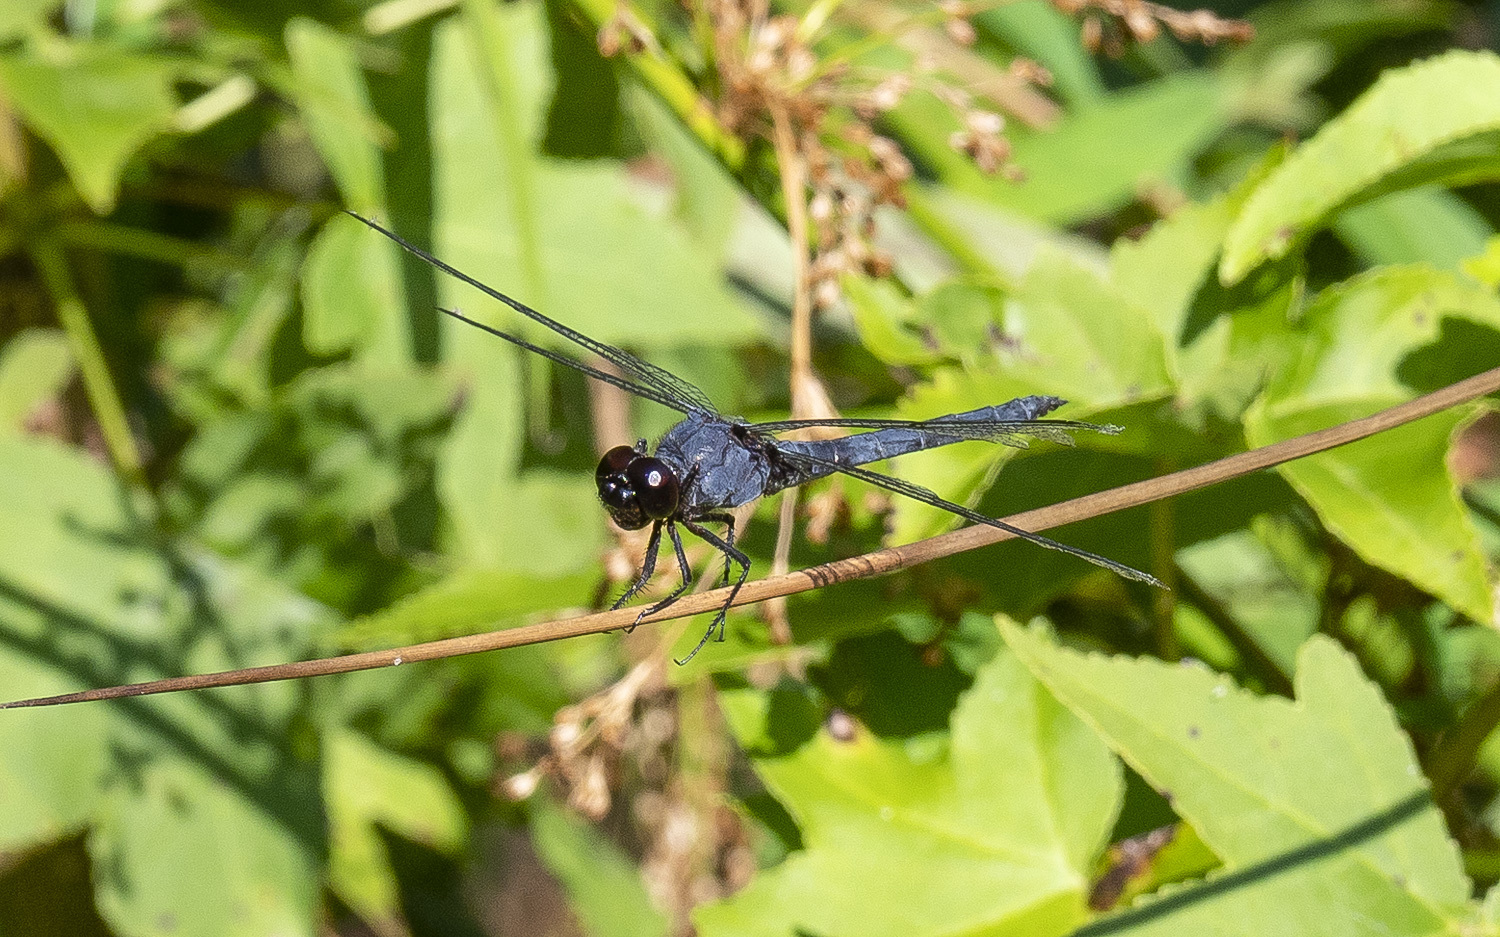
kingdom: Animalia
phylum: Arthropoda
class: Insecta
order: Odonata
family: Libellulidae
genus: Libellula
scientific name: Libellula incesta
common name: Slaty skimmer
